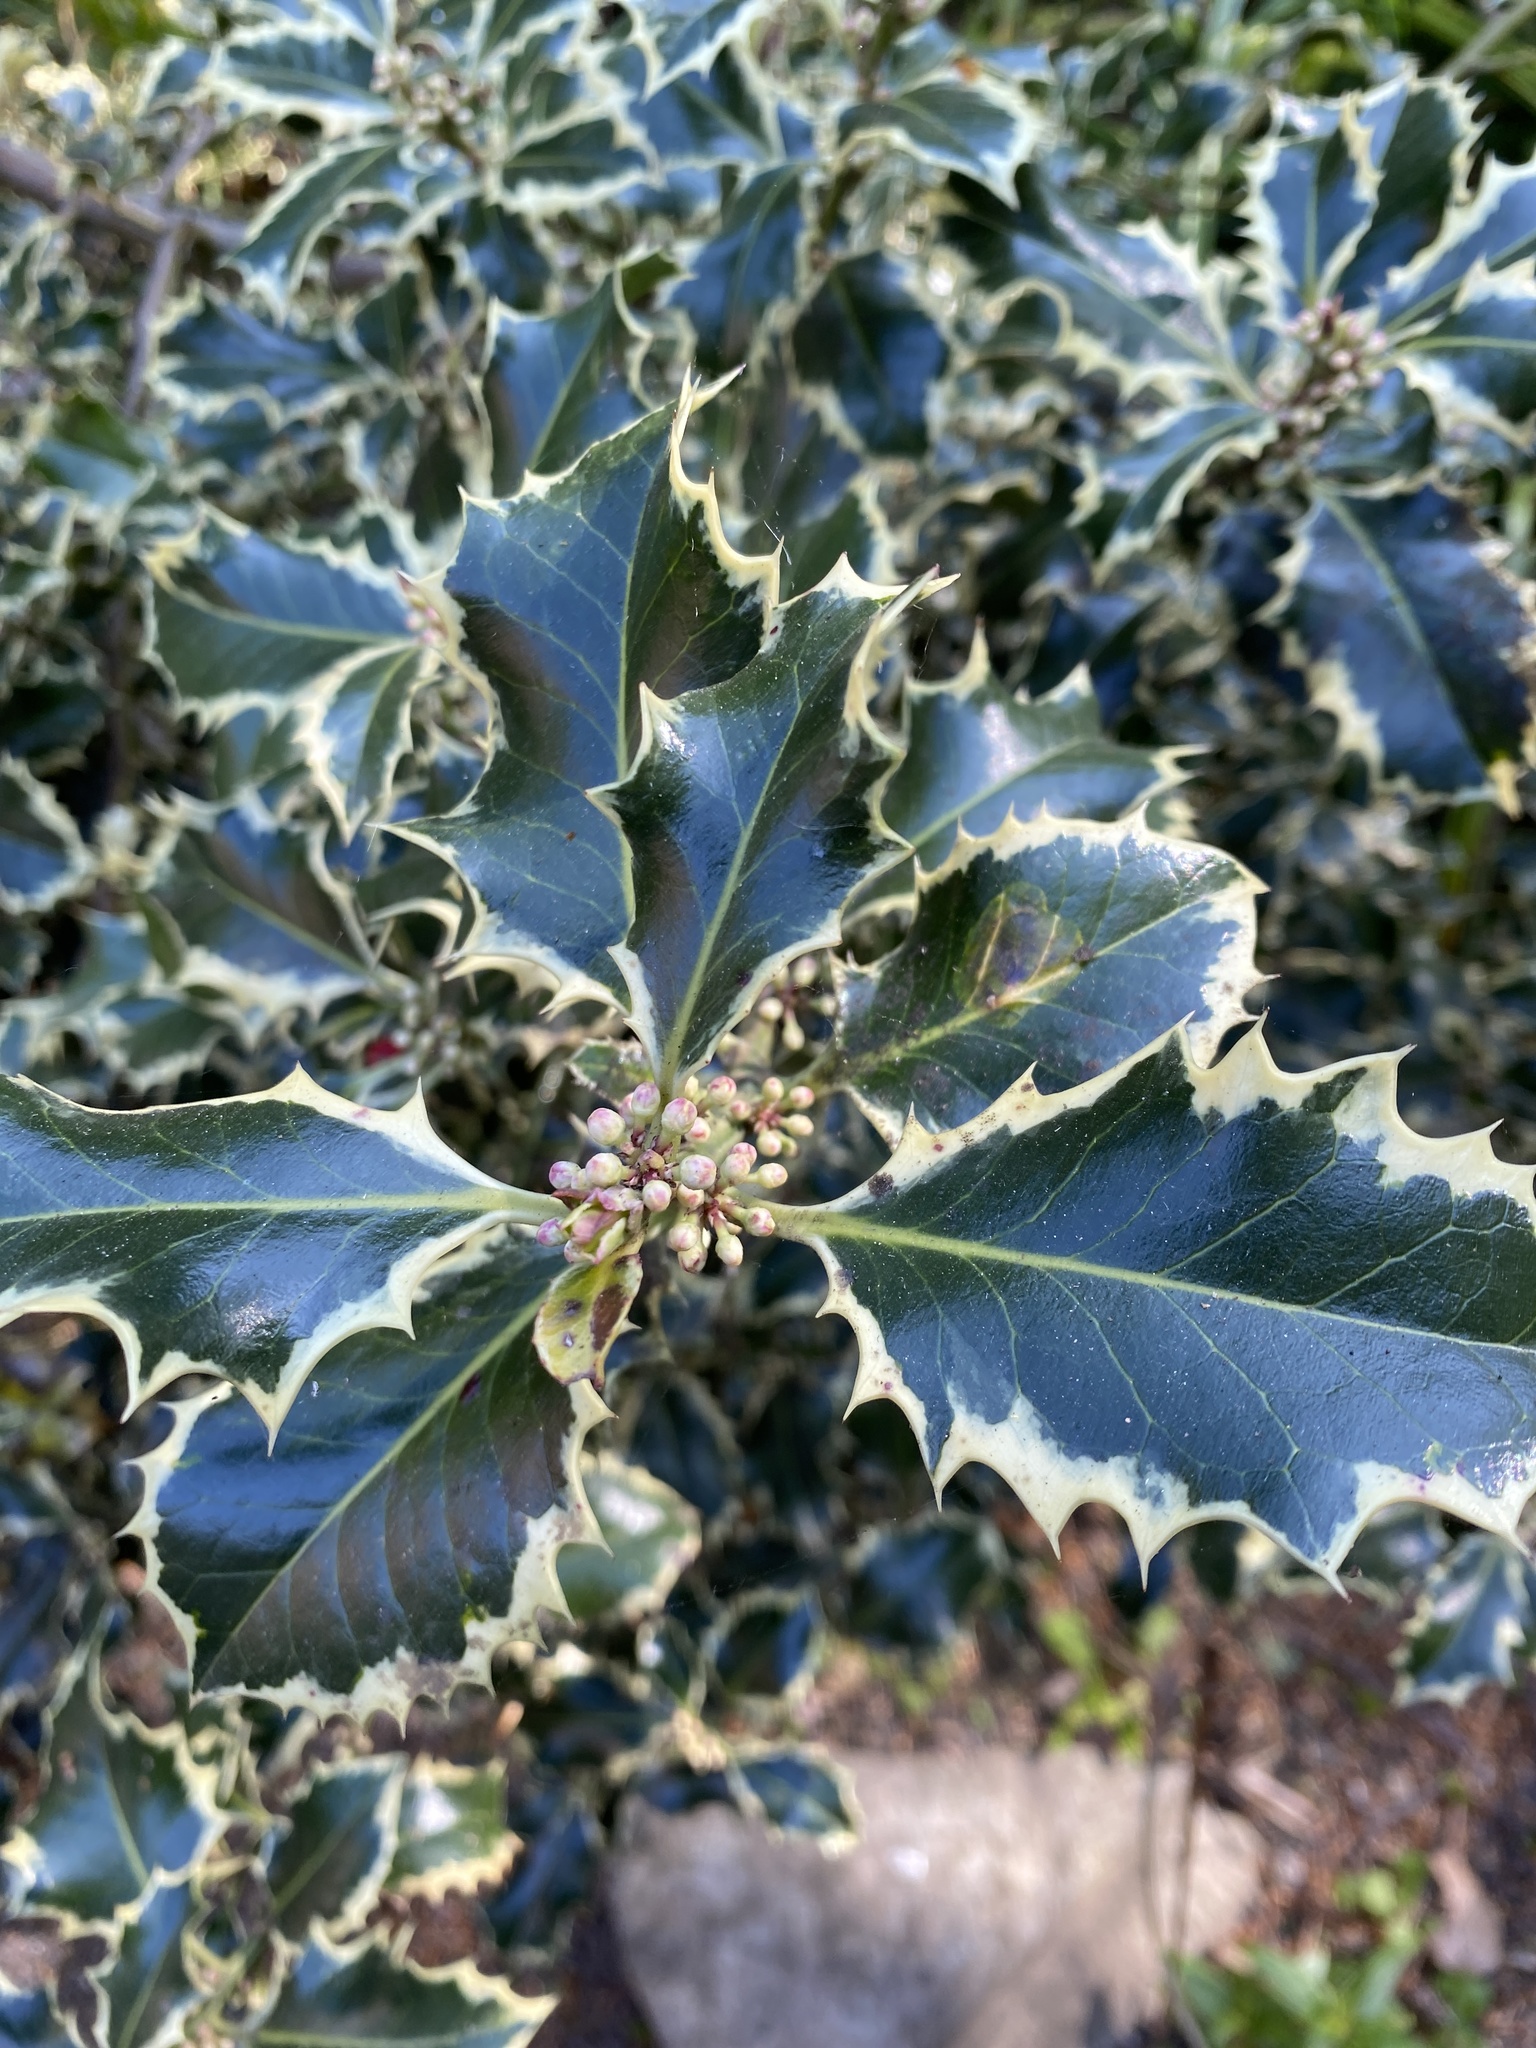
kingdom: Plantae
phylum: Tracheophyta
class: Magnoliopsida
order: Aquifoliales
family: Aquifoliaceae
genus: Ilex
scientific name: Ilex aquifolium
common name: English holly
